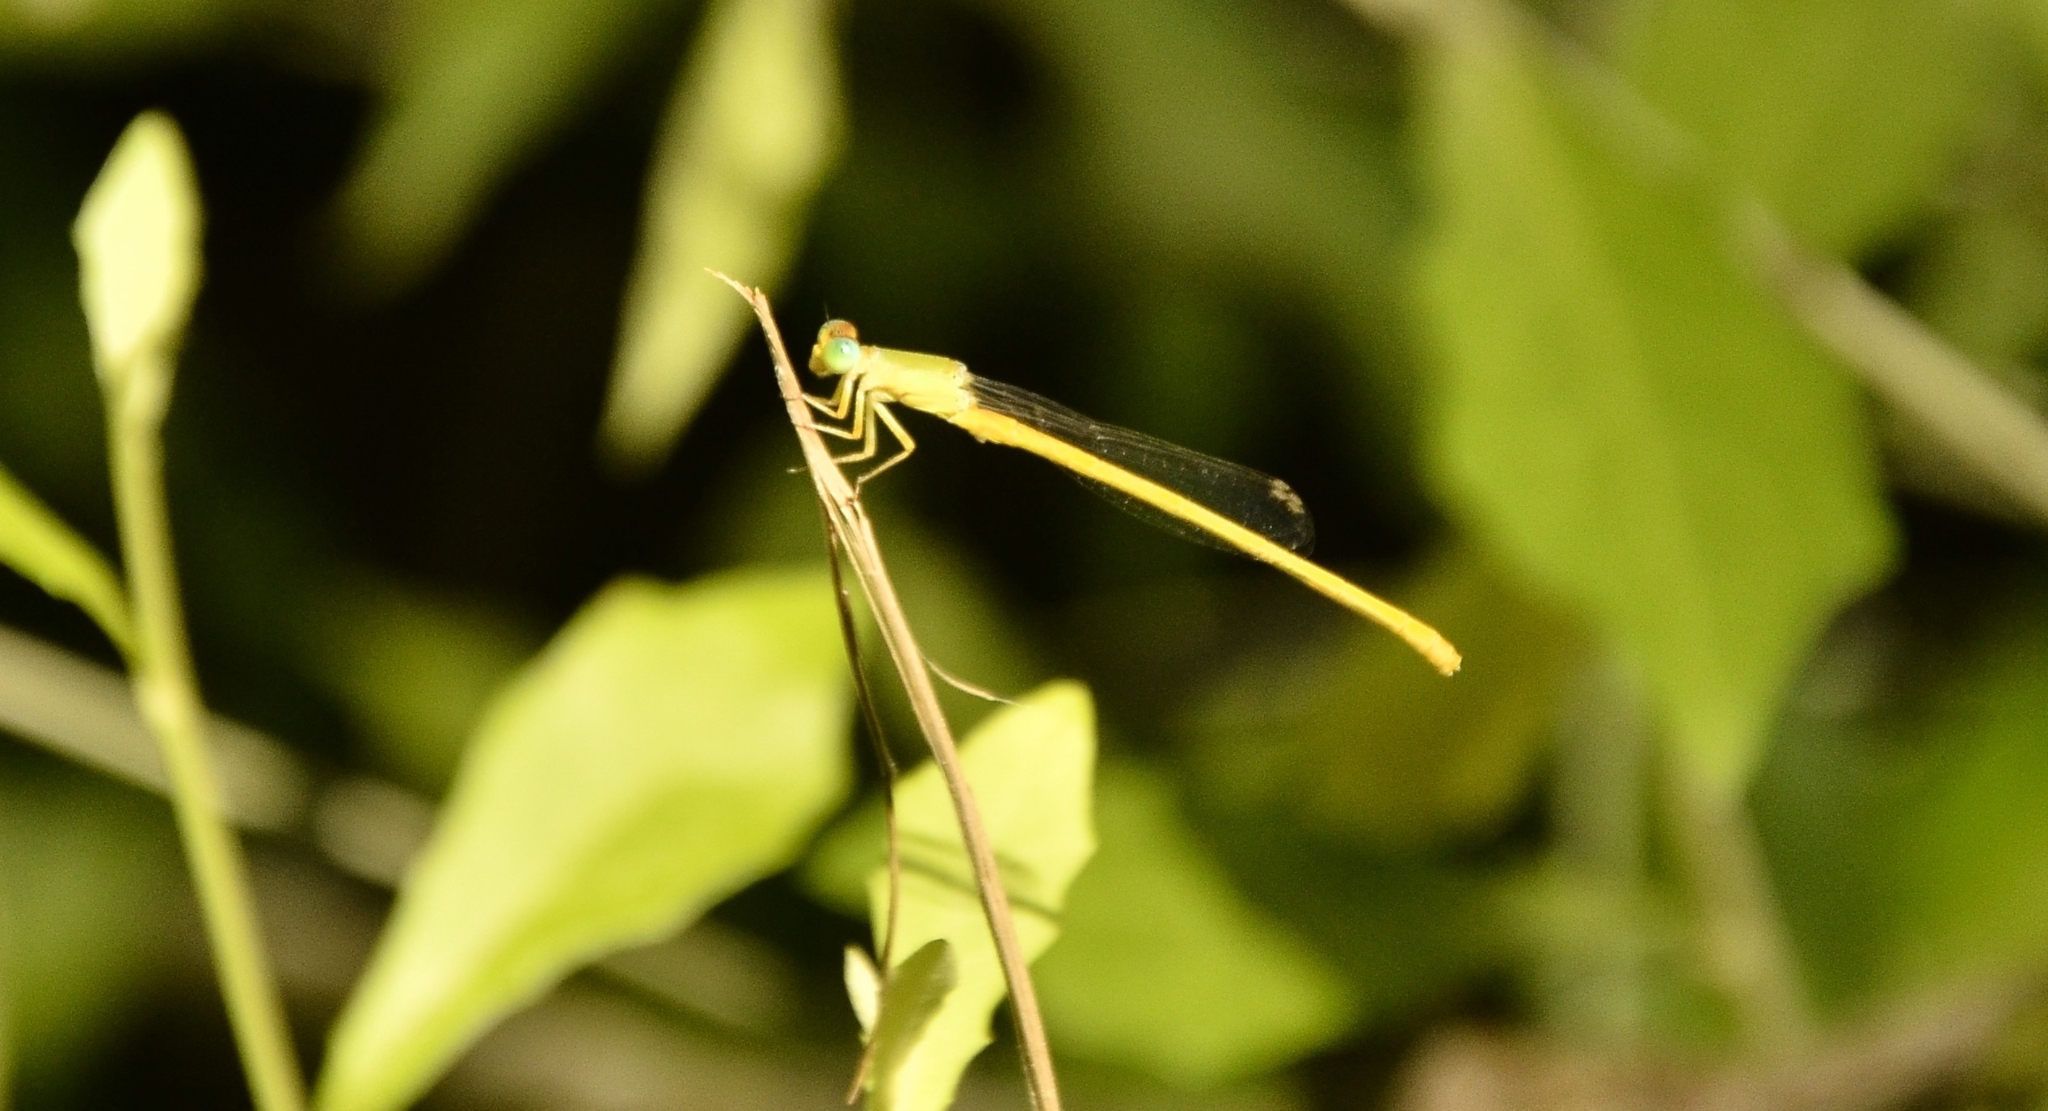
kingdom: Animalia
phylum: Arthropoda
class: Insecta
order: Odonata
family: Coenagrionidae
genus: Ceriagrion
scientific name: Ceriagrion coromandelianum
